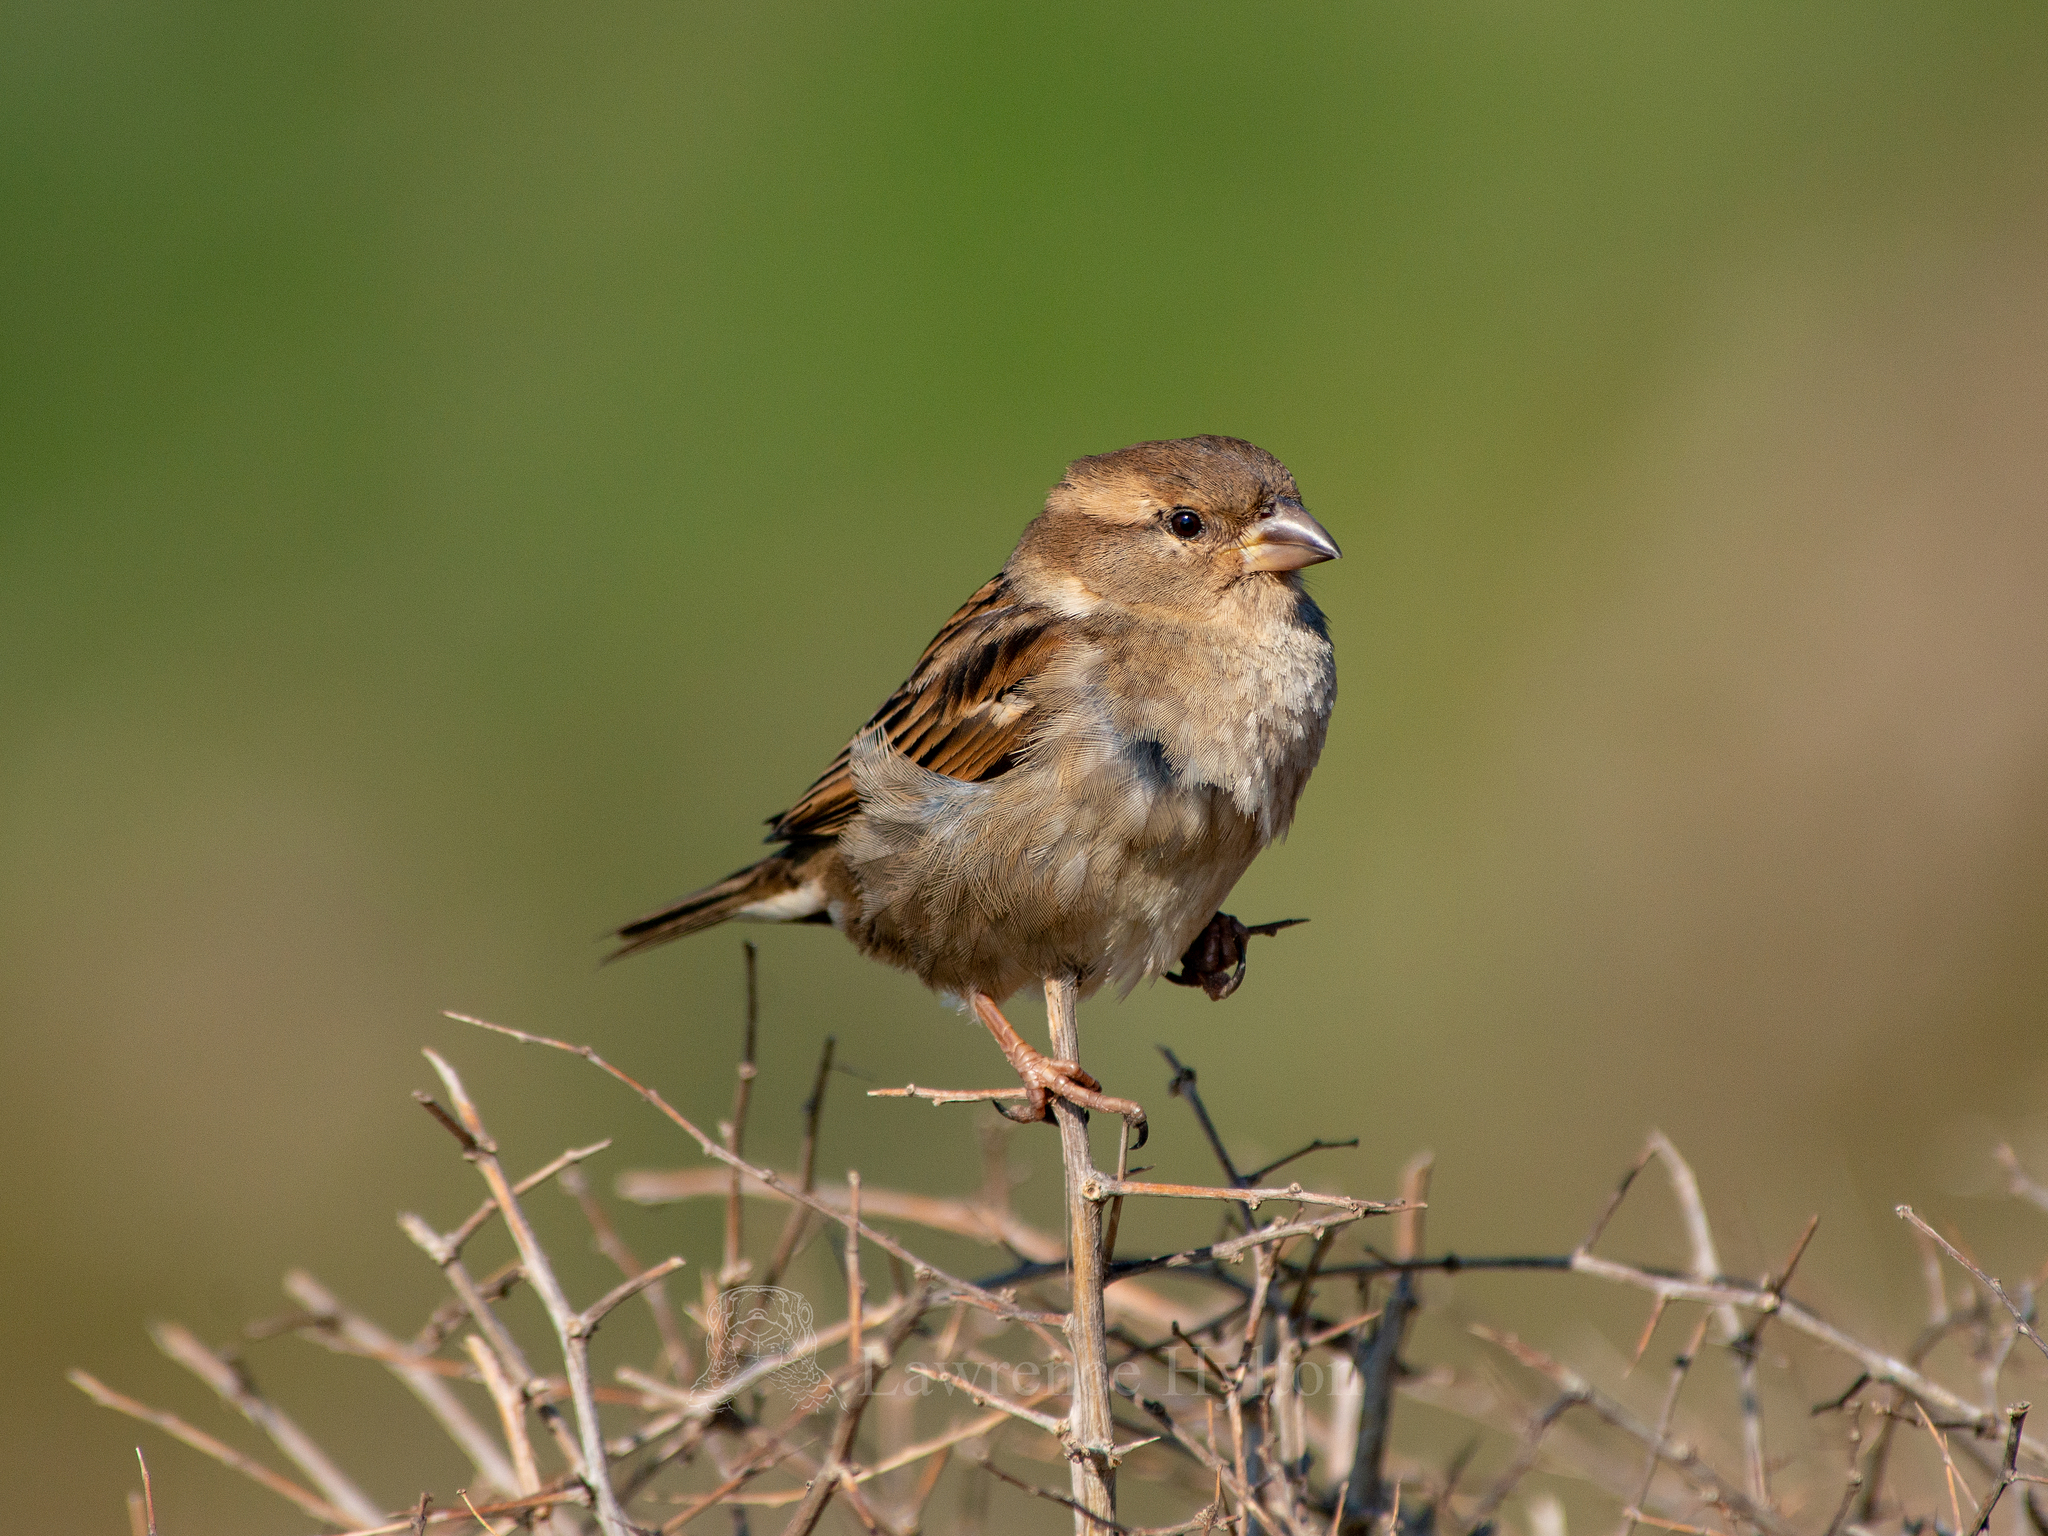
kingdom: Animalia
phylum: Chordata
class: Aves
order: Passeriformes
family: Passeridae
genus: Passer
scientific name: Passer domesticus
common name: House sparrow
